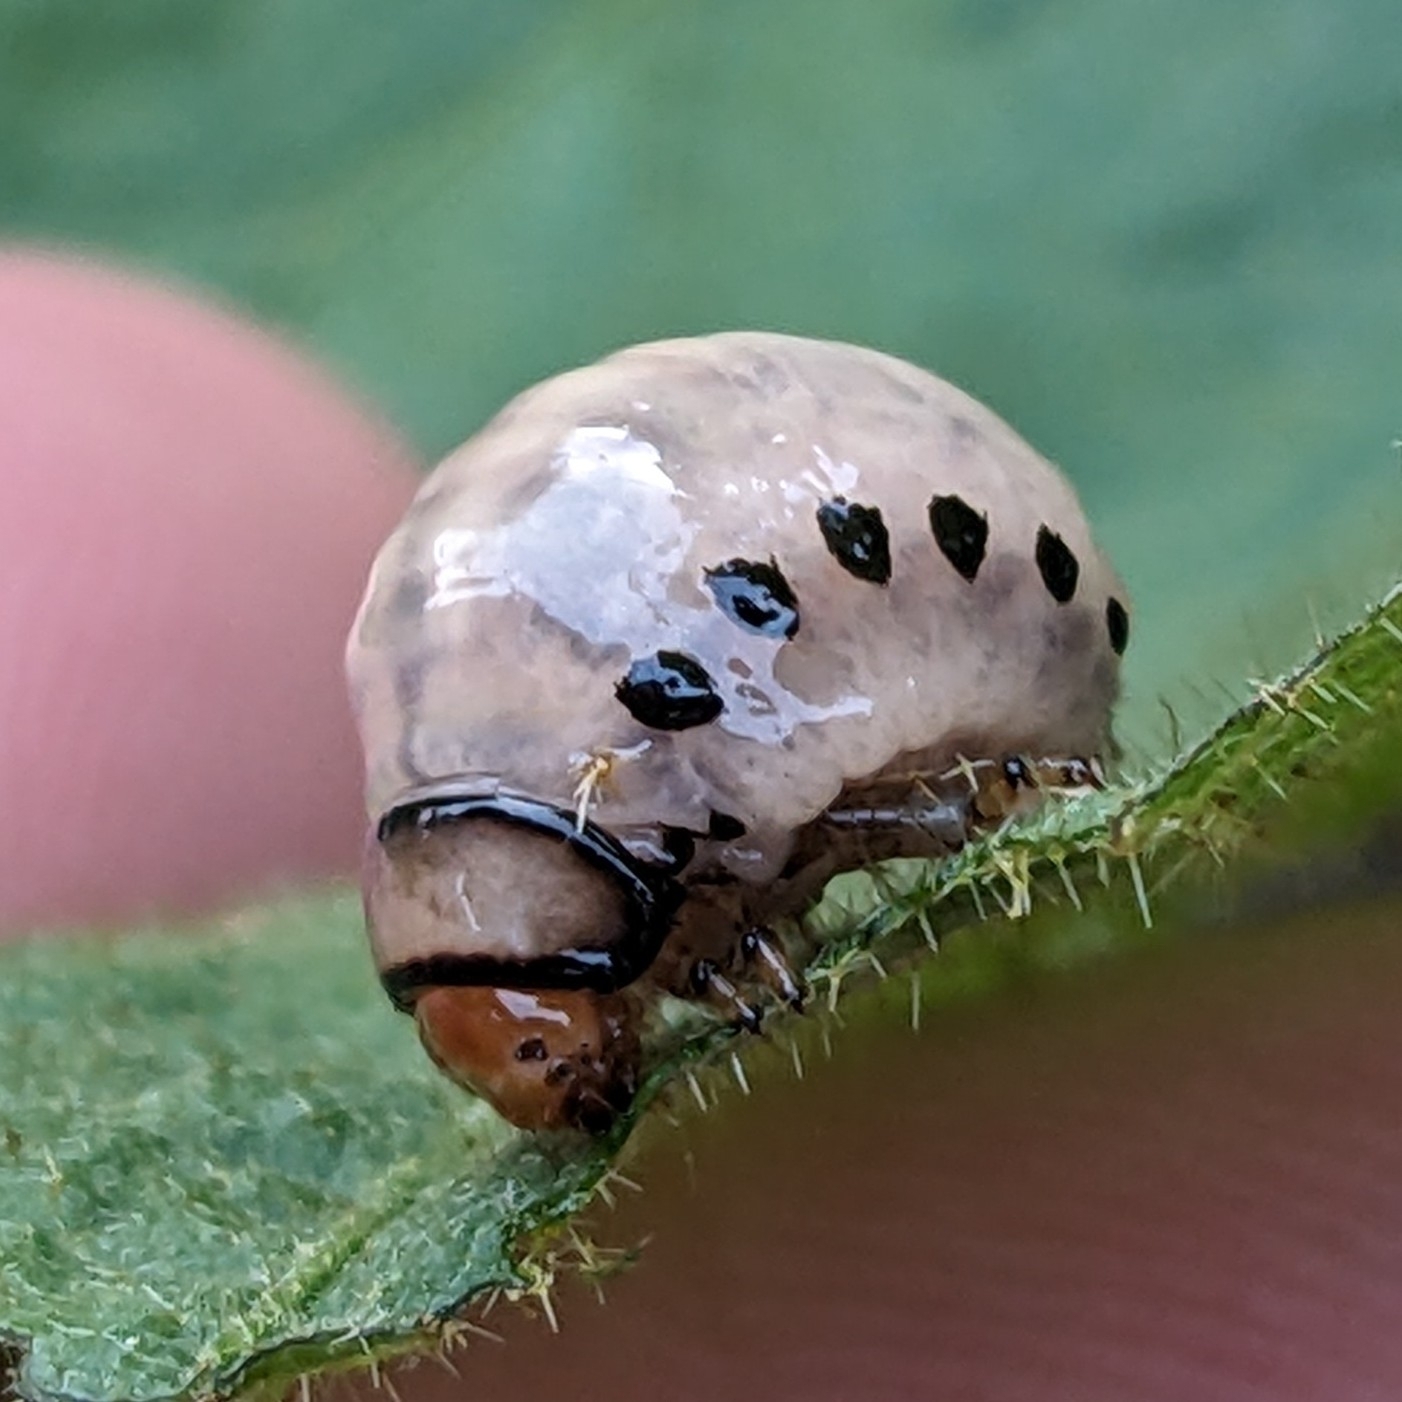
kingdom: Animalia
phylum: Arthropoda
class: Insecta
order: Coleoptera
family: Chrysomelidae
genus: Leptinotarsa
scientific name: Leptinotarsa juncta
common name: False potato beetle
